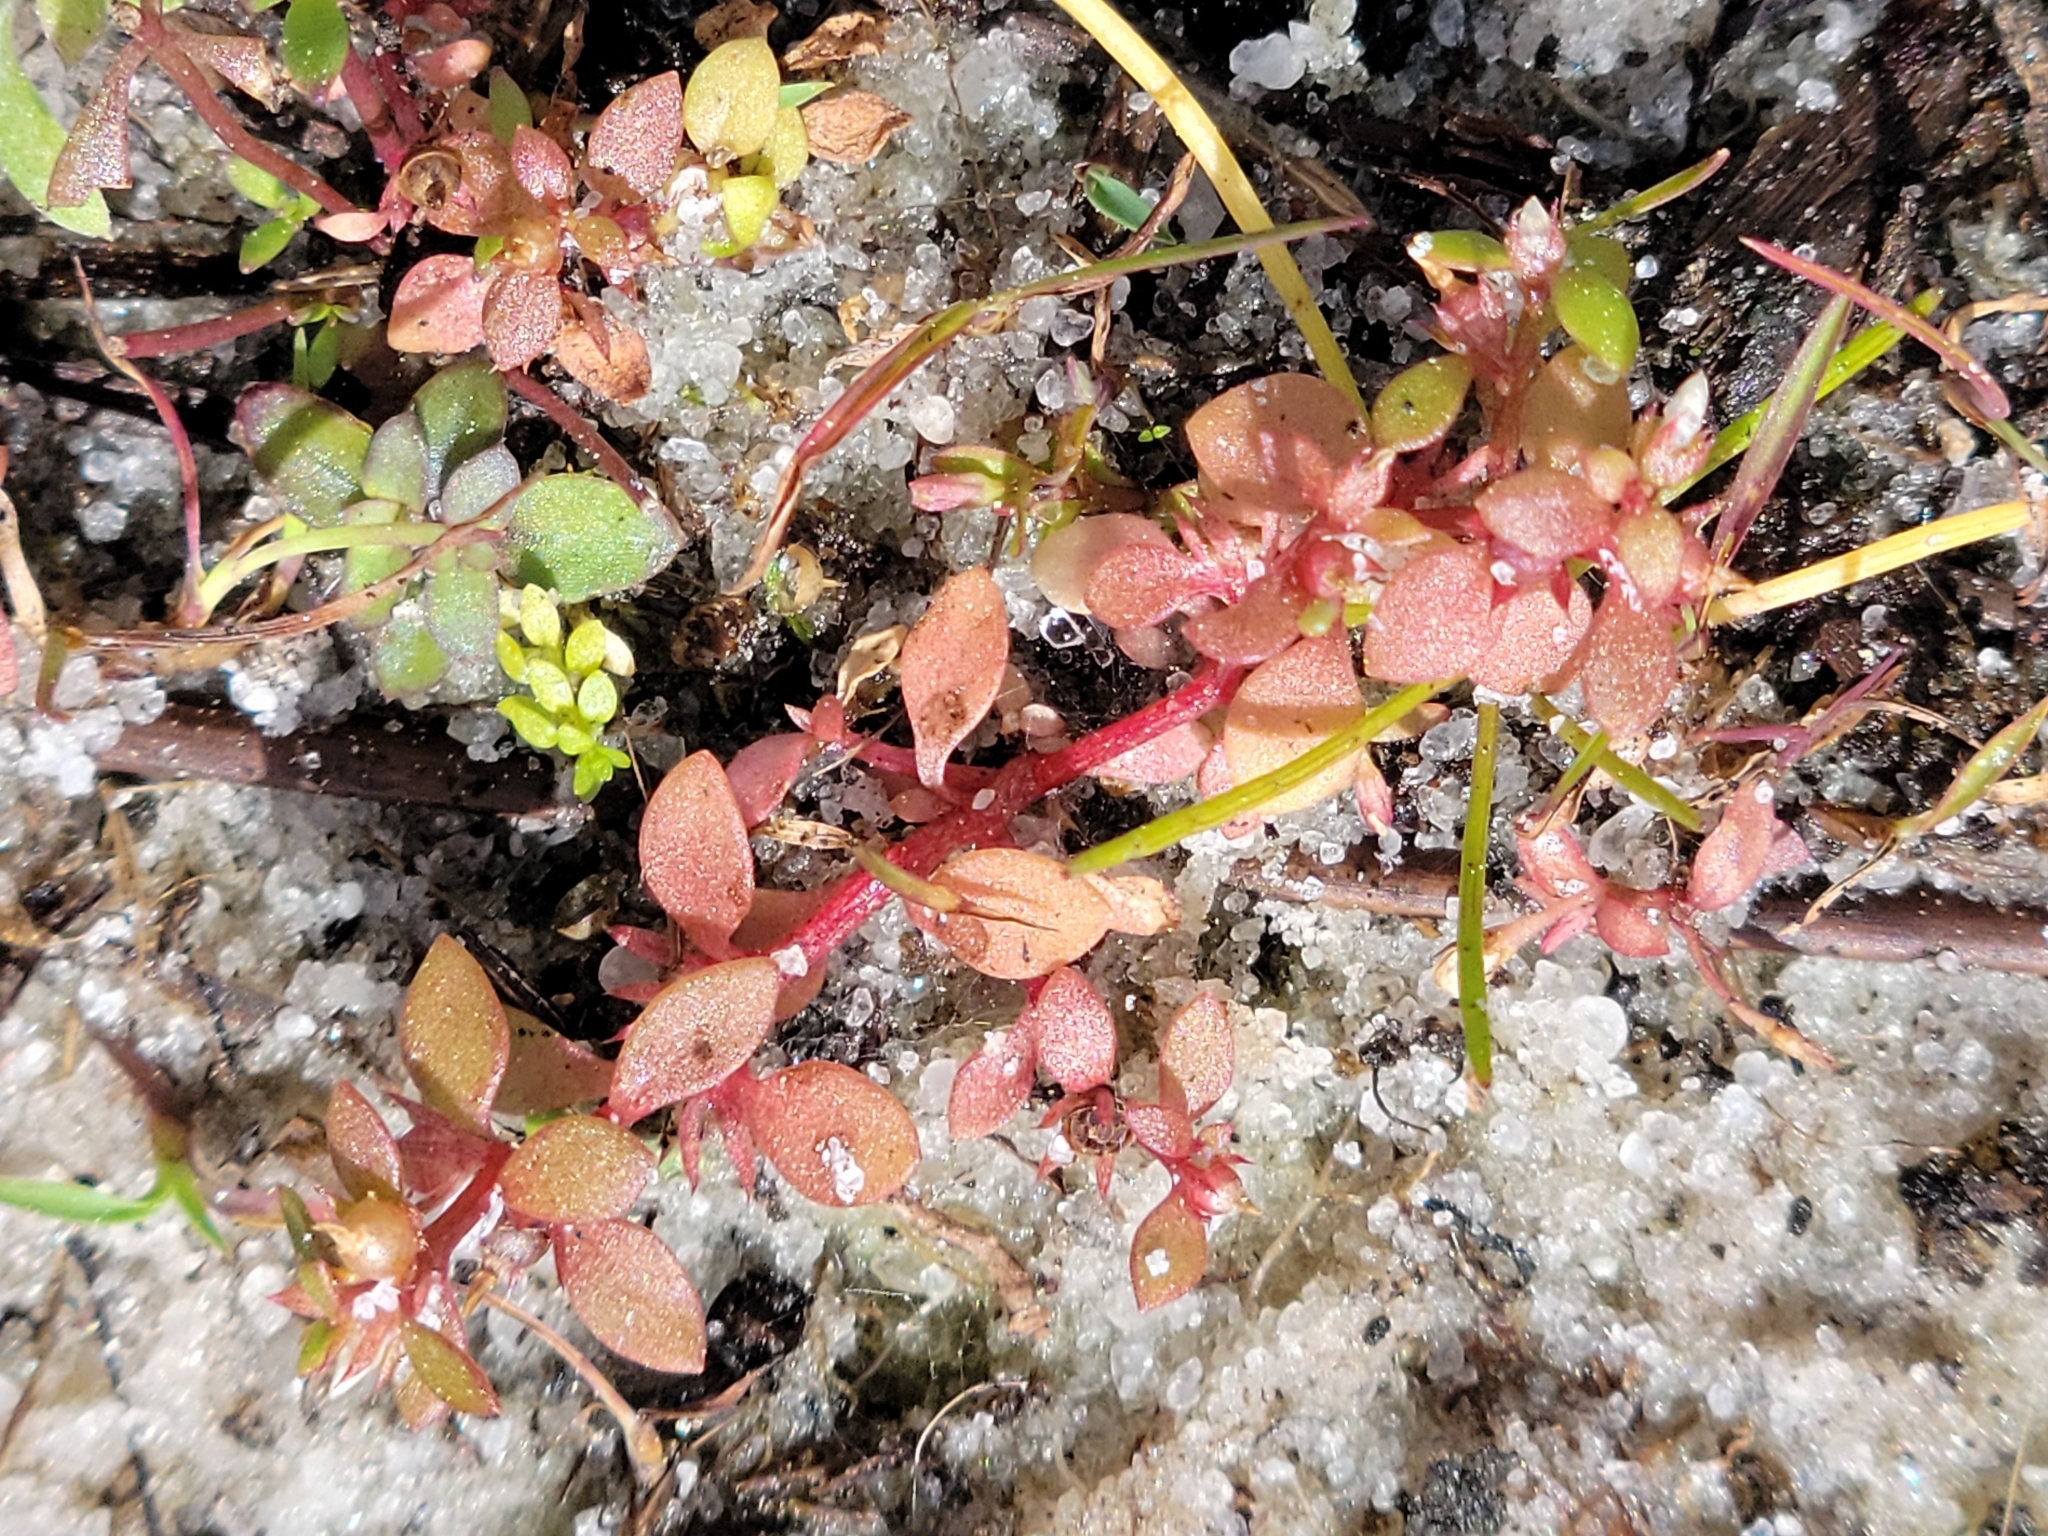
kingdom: Plantae
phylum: Tracheophyta
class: Magnoliopsida
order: Ericales
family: Primulaceae
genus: Lysimachia
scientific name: Lysimachia minima
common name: Chaffweed
